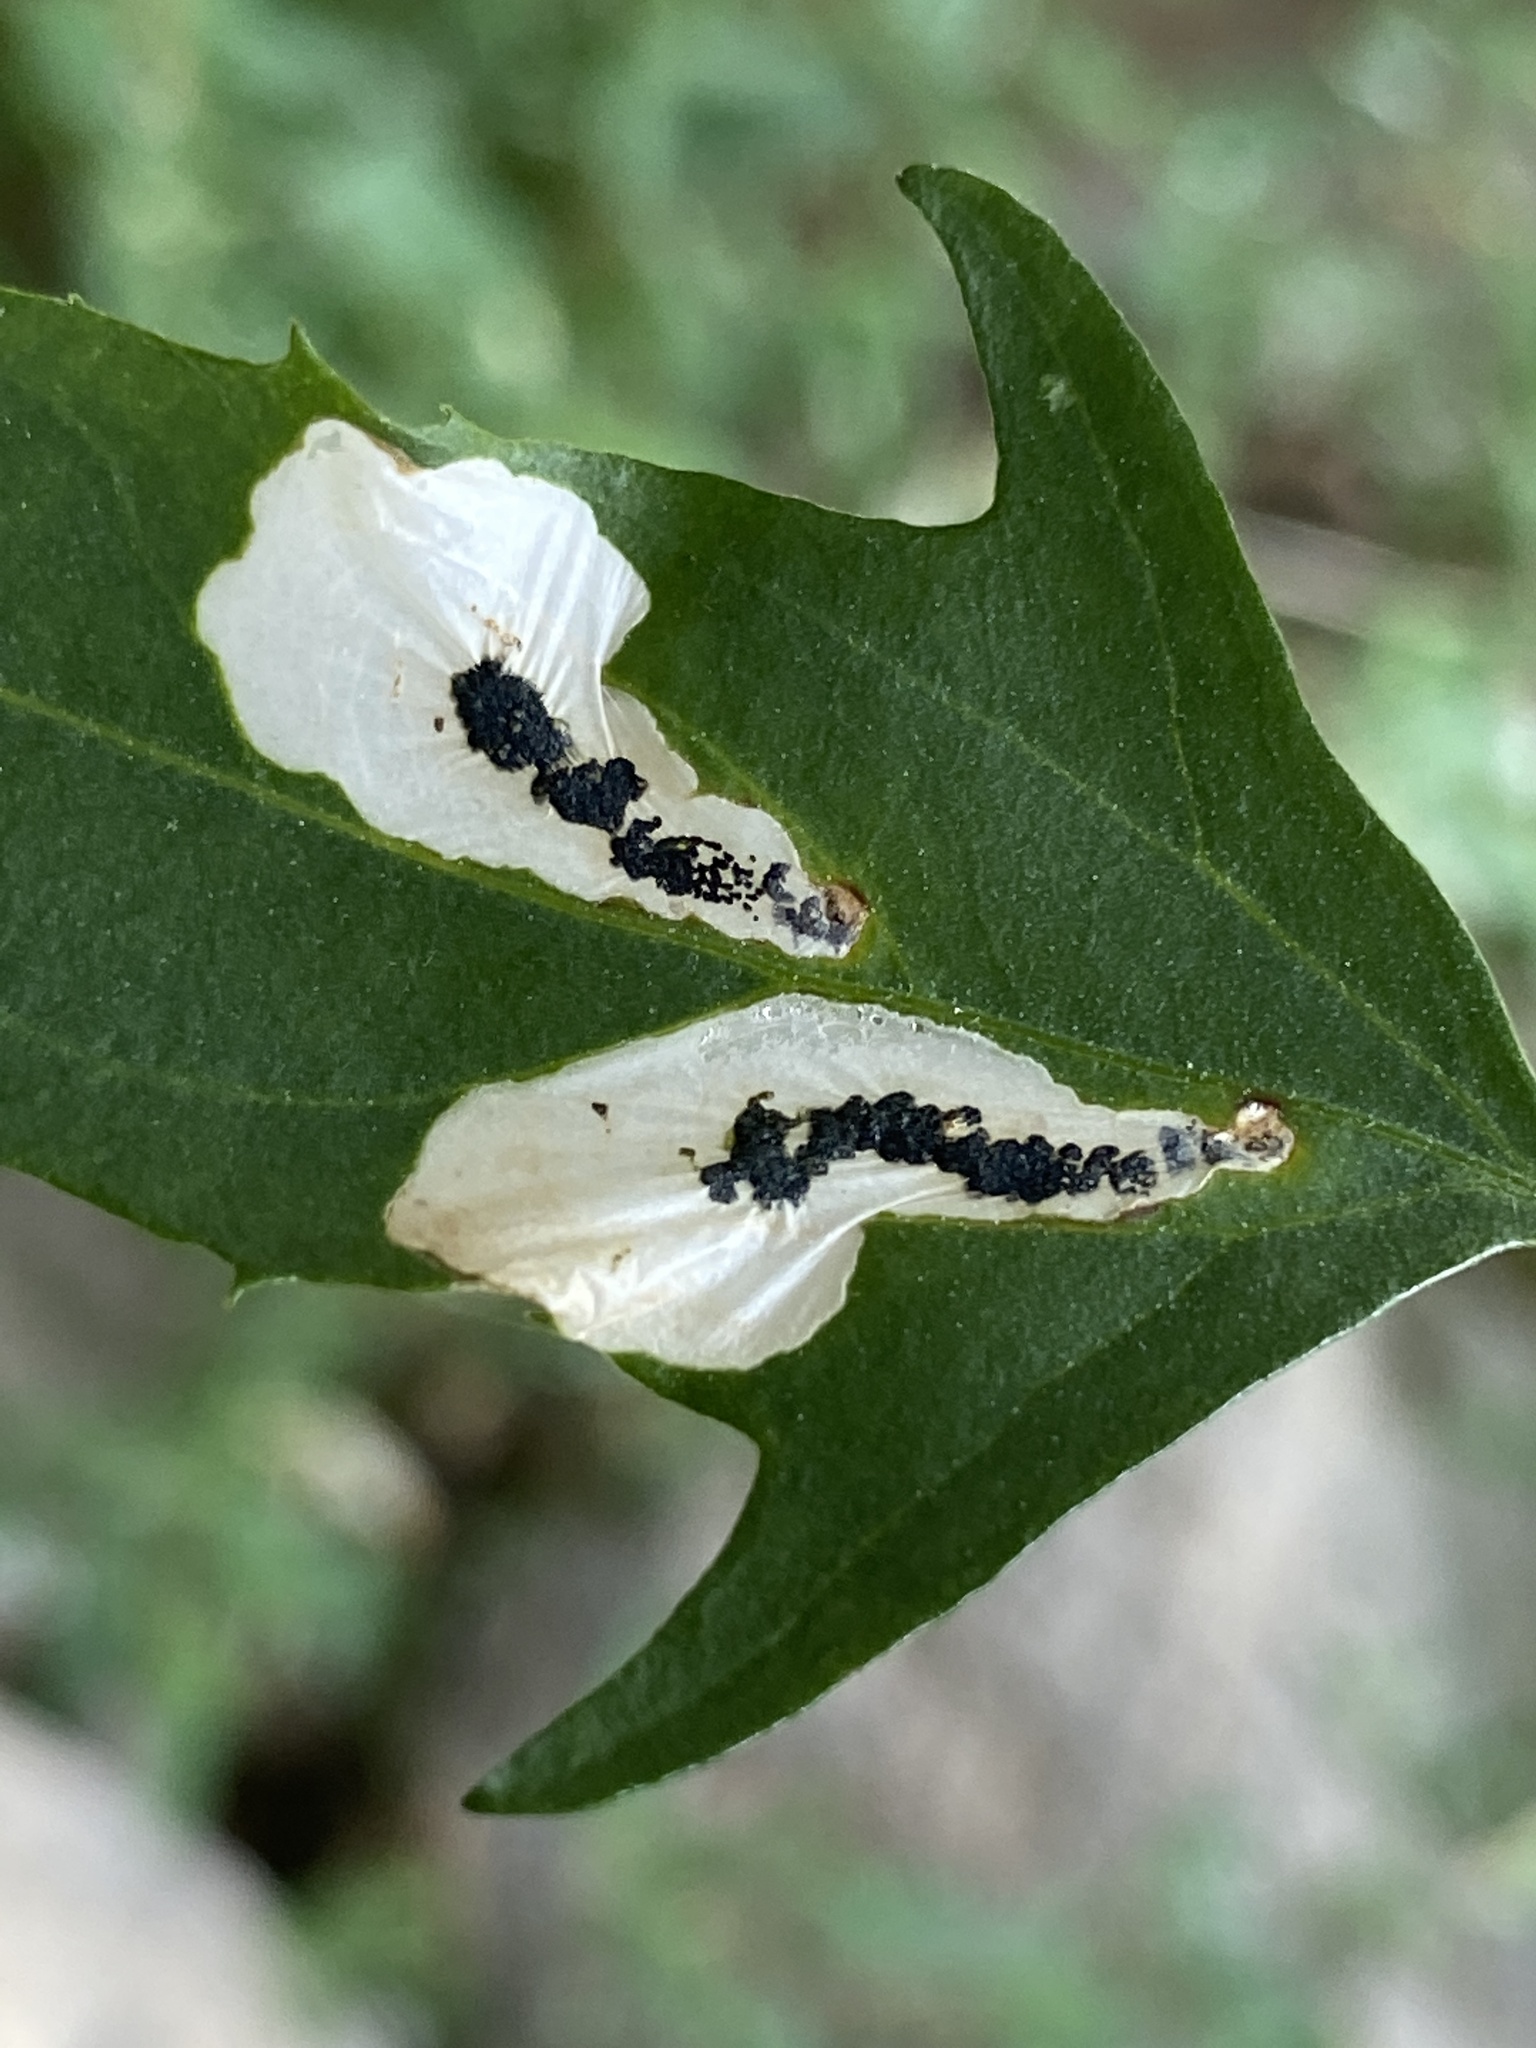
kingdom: Animalia
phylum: Arthropoda
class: Insecta
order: Lepidoptera
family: Gelechiidae
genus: Chrysoesthia
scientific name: Chrysoesthia sexguttella
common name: Moth
